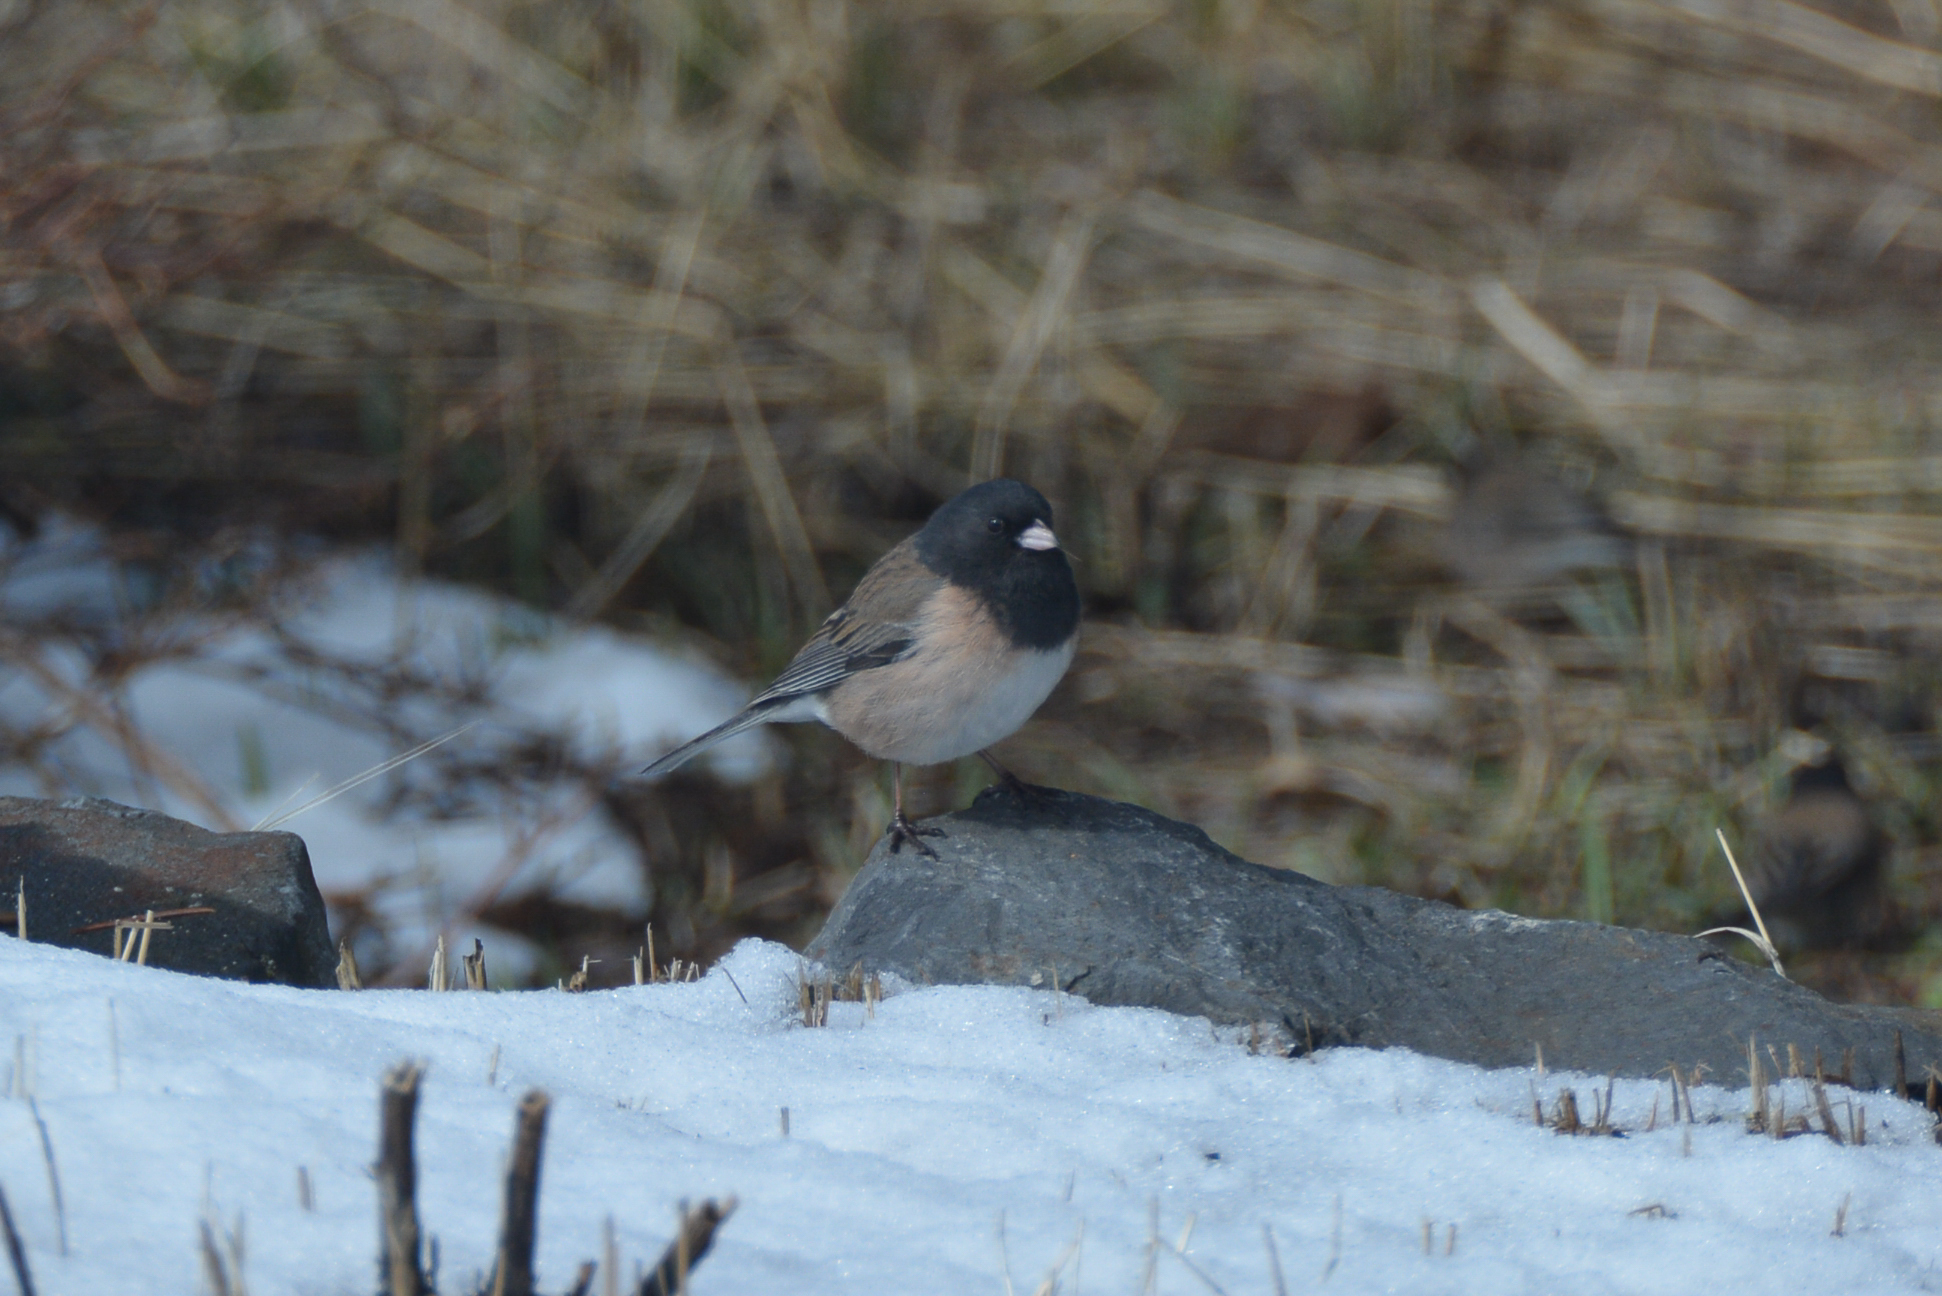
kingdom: Animalia
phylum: Chordata
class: Aves
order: Passeriformes
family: Passerellidae
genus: Junco
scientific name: Junco hyemalis
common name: Dark-eyed junco
